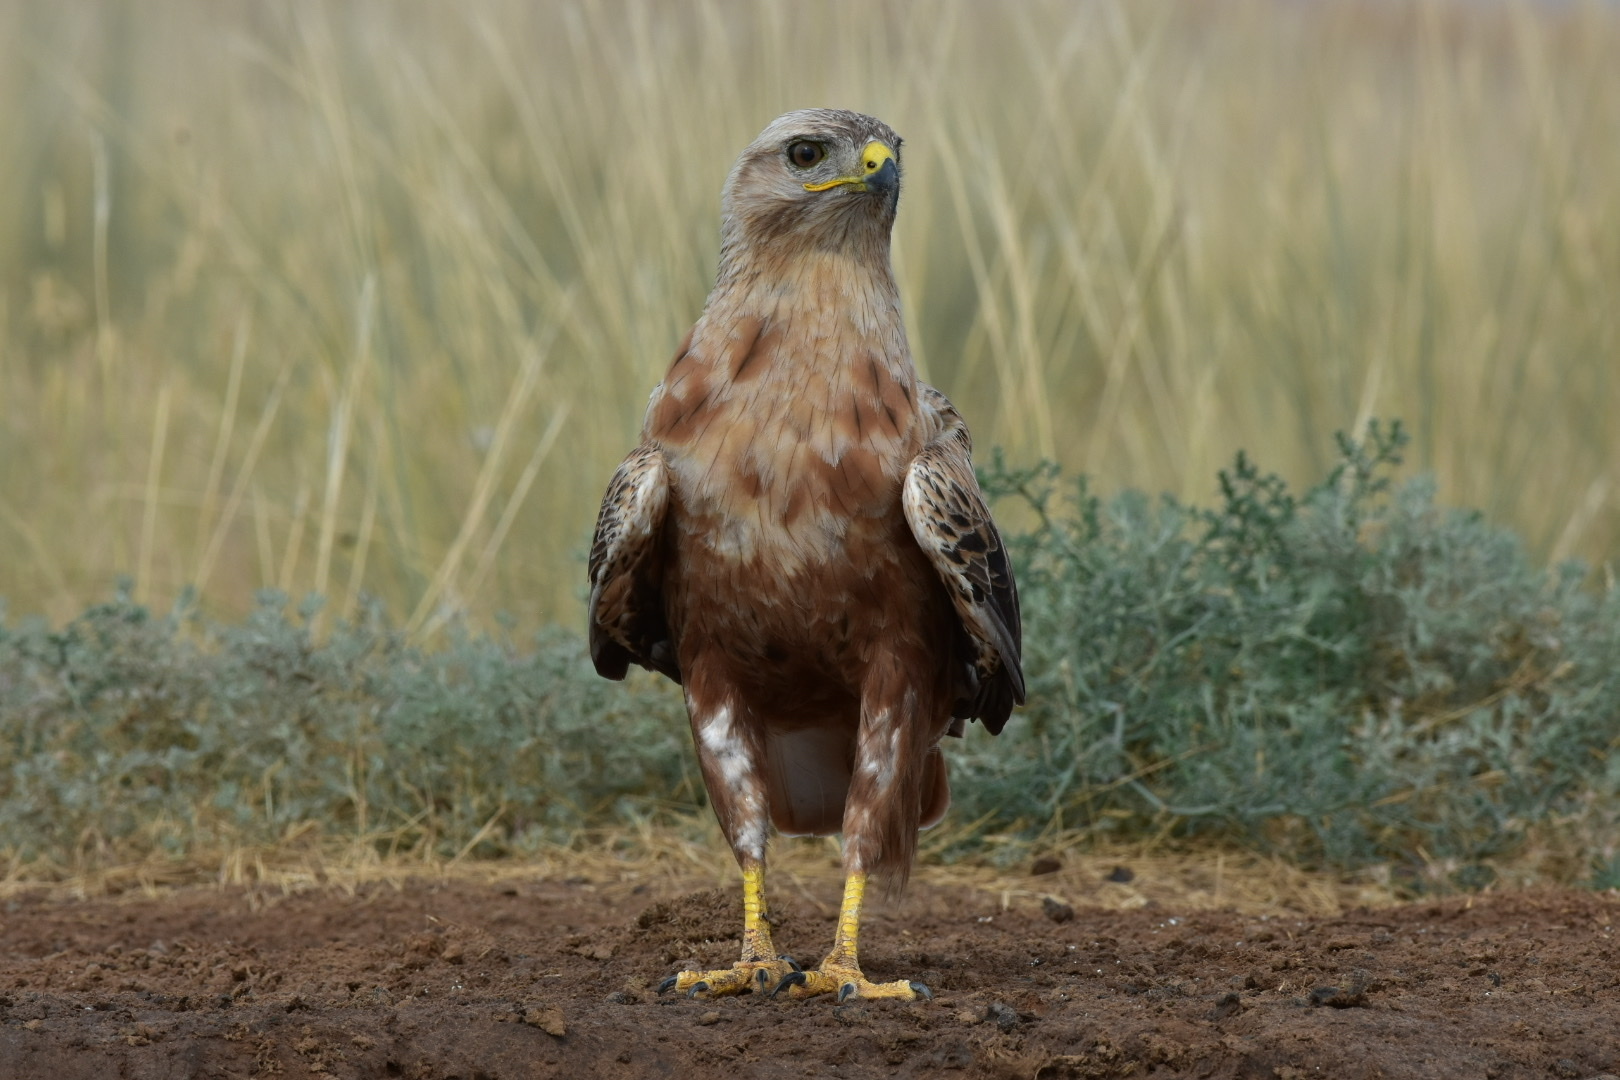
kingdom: Animalia
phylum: Chordata
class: Aves
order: Accipitriformes
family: Accipitridae
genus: Buteo
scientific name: Buteo rufinus
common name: Long-legged buzzard
